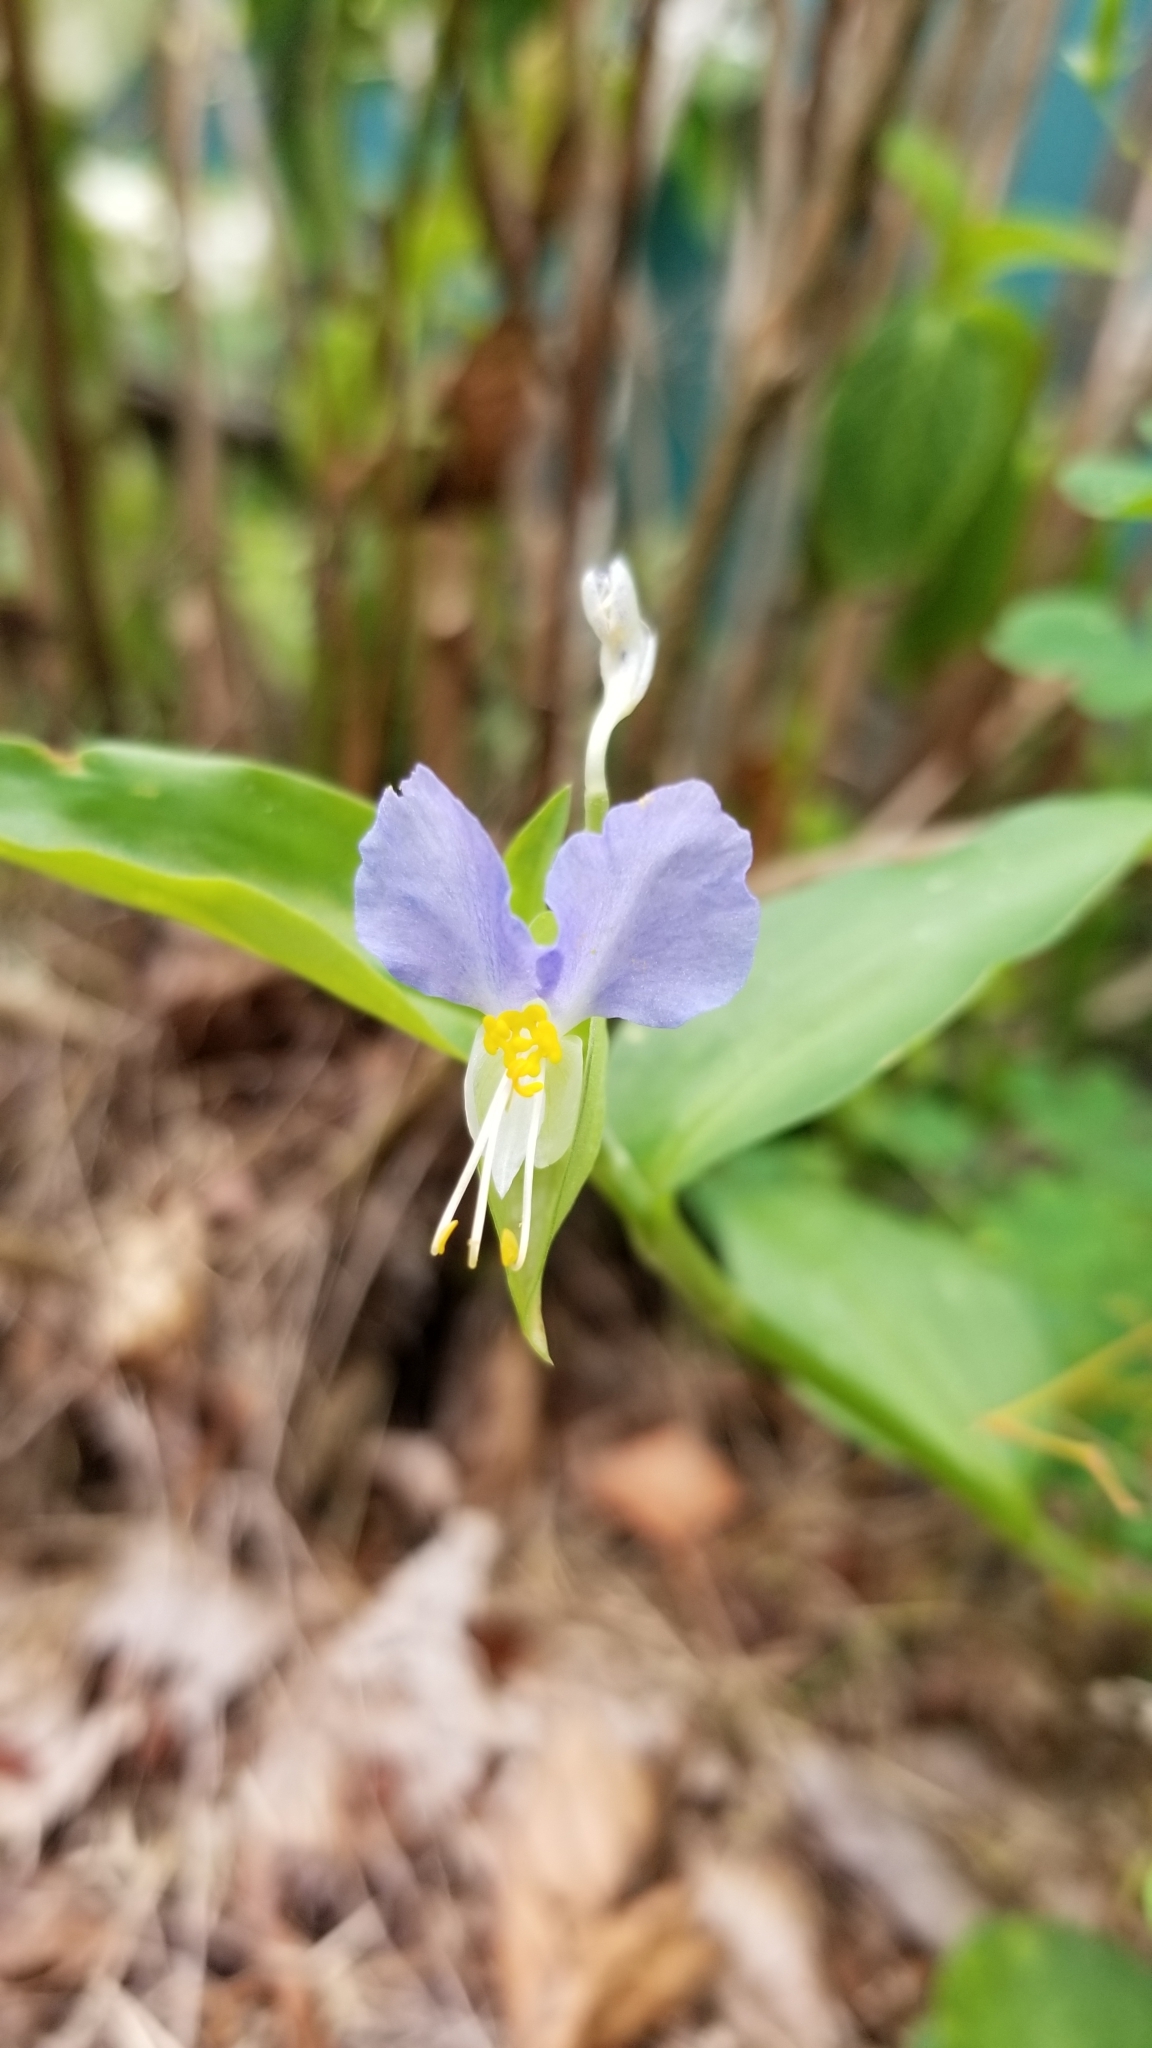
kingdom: Plantae
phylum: Tracheophyta
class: Liliopsida
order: Commelinales
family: Commelinaceae
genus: Commelina
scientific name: Commelina communis
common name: Asiatic dayflower
